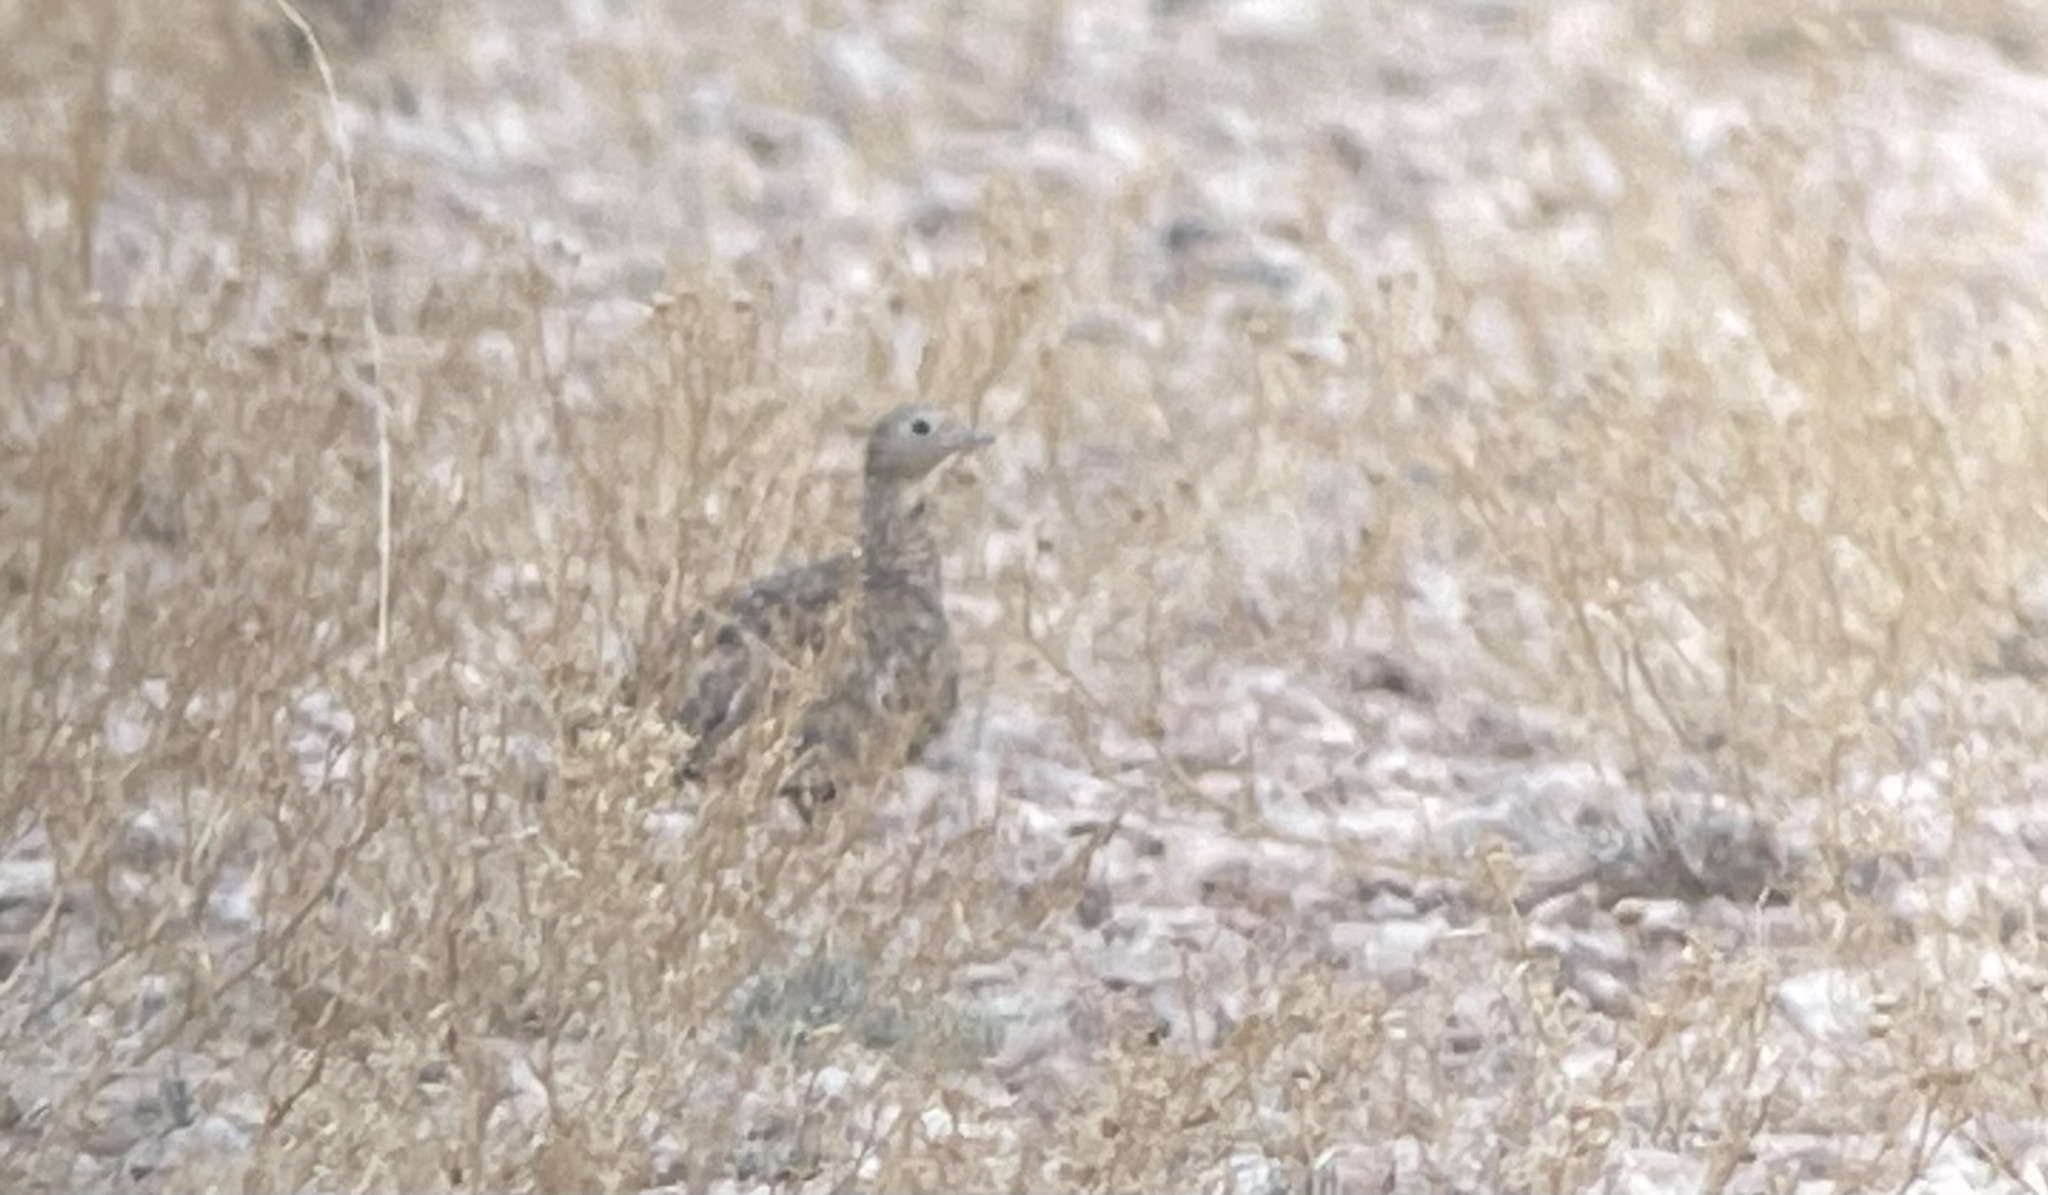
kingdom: Animalia
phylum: Chordata
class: Aves
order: Pteroclidiformes
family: Pteroclididae
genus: Pterocles
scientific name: Pterocles orientalis
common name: Black-bellied sandgrouse
